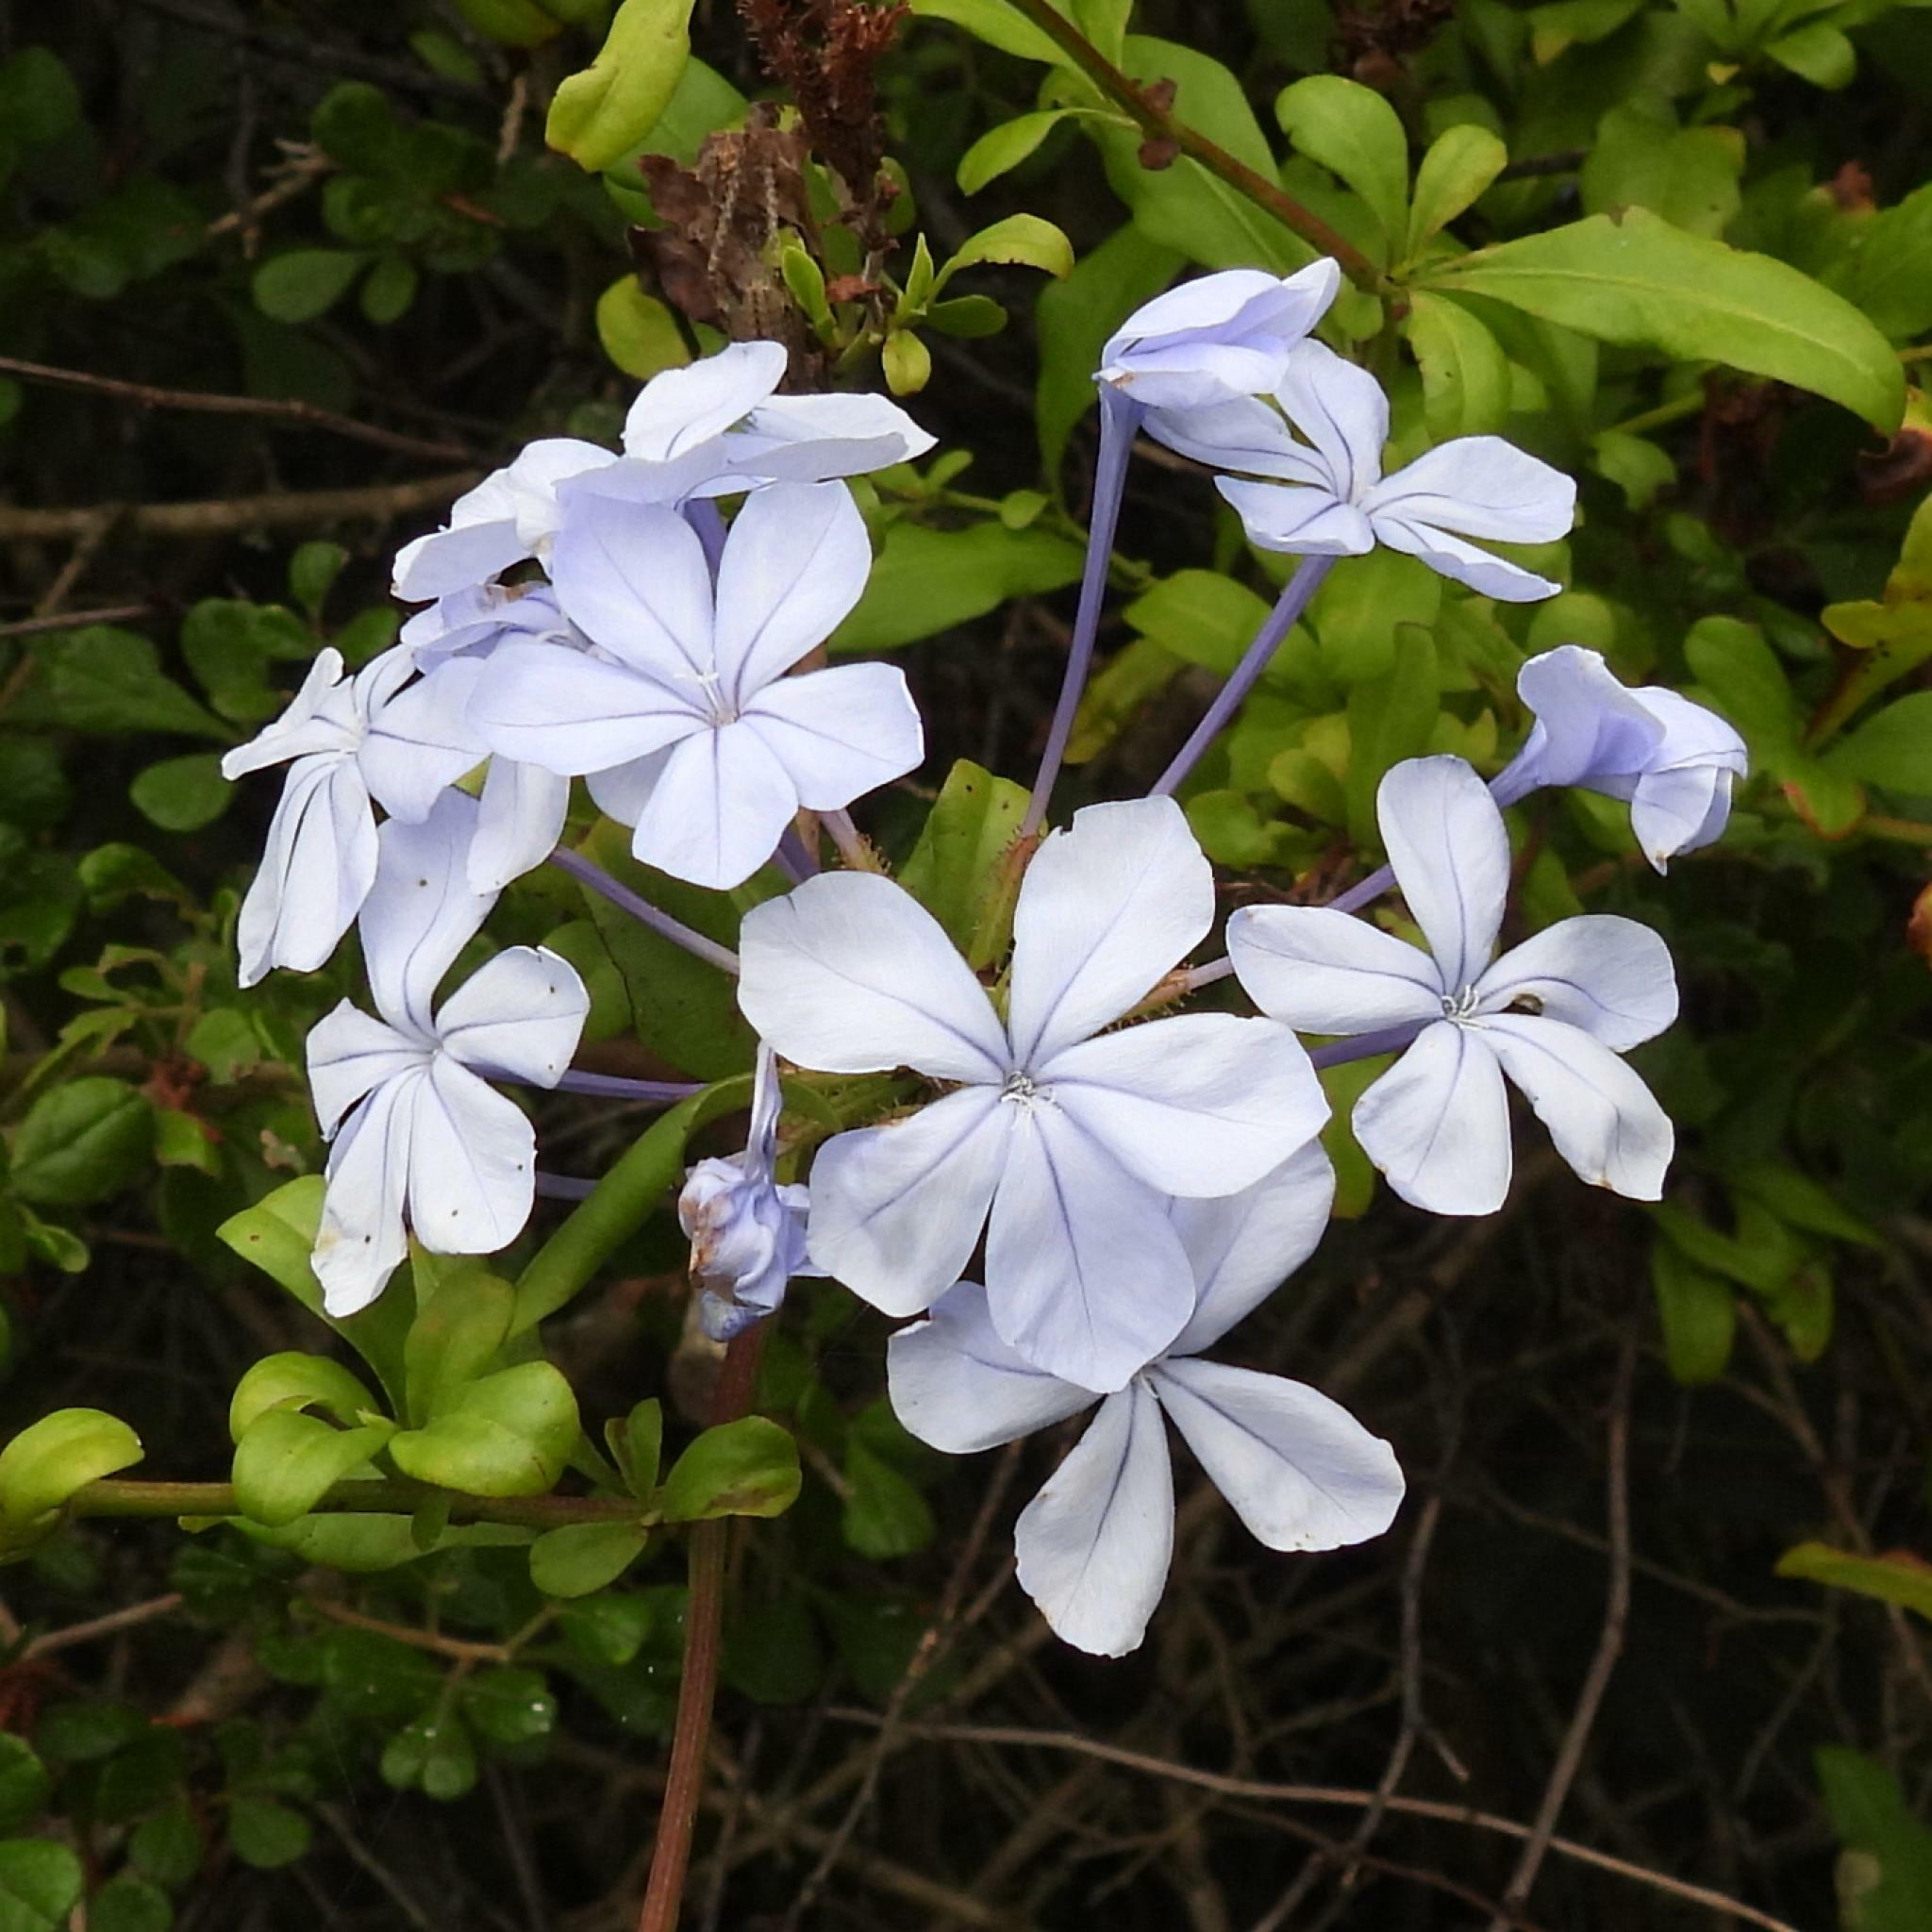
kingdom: Plantae
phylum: Tracheophyta
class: Magnoliopsida
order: Caryophyllales
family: Plumbaginaceae
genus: Plumbago
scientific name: Plumbago auriculata
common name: Cape leadwort
